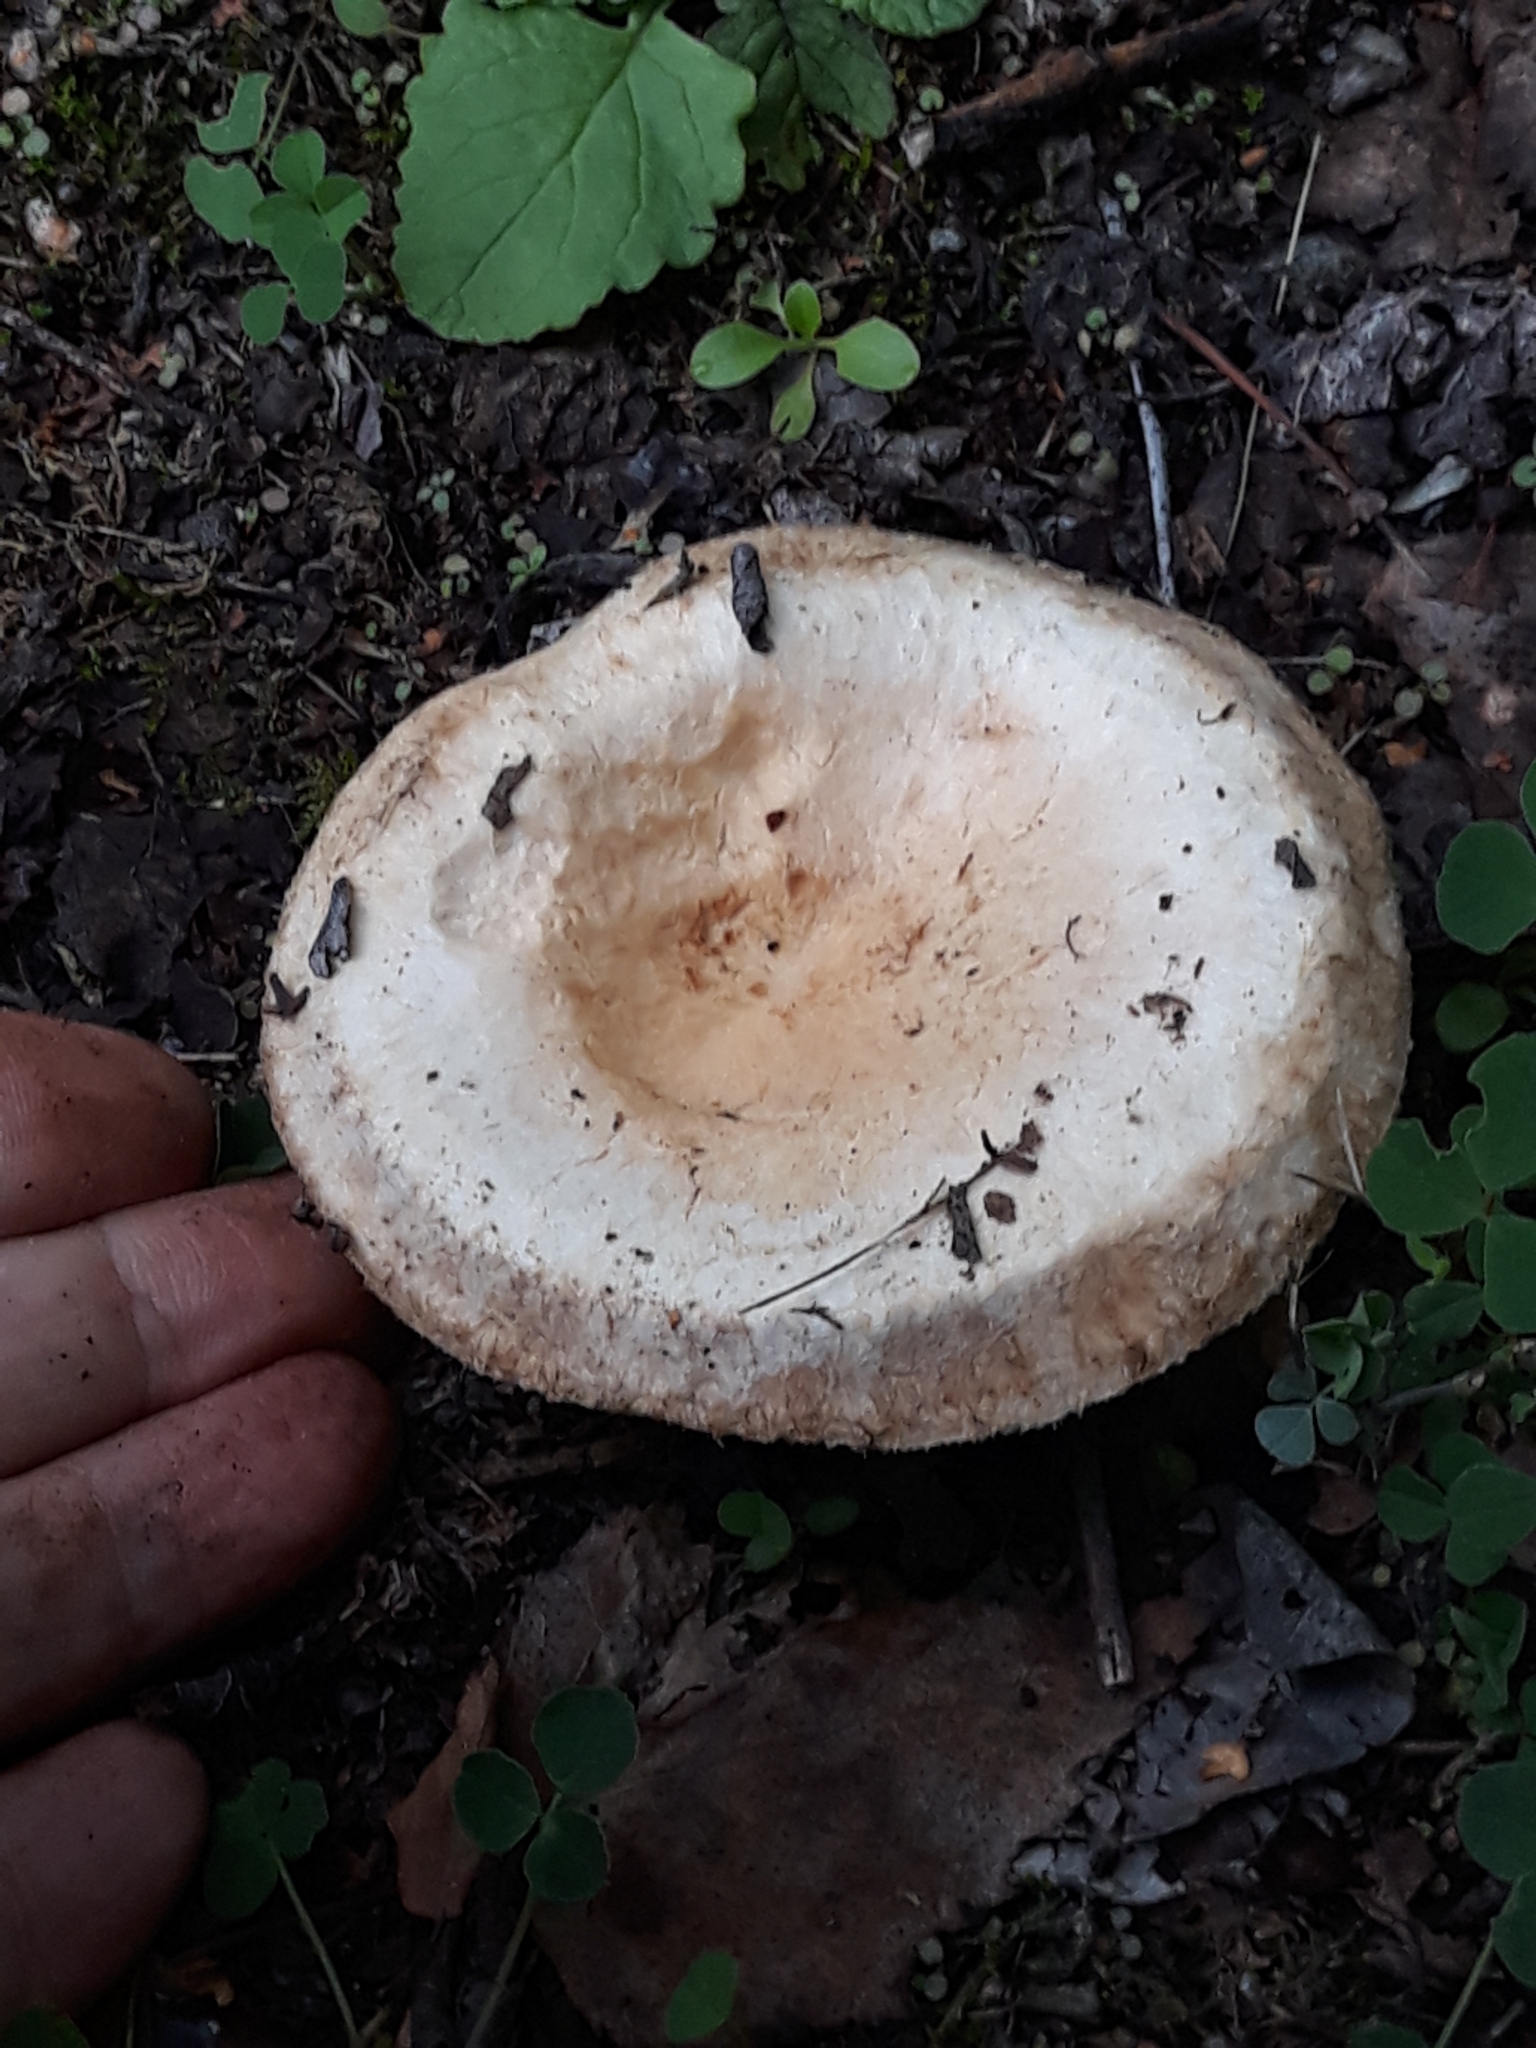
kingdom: Fungi
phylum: Basidiomycota
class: Agaricomycetes
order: Russulales
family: Russulaceae
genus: Lactarius
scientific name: Lactarius pubescens
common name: Bearded milkcap
